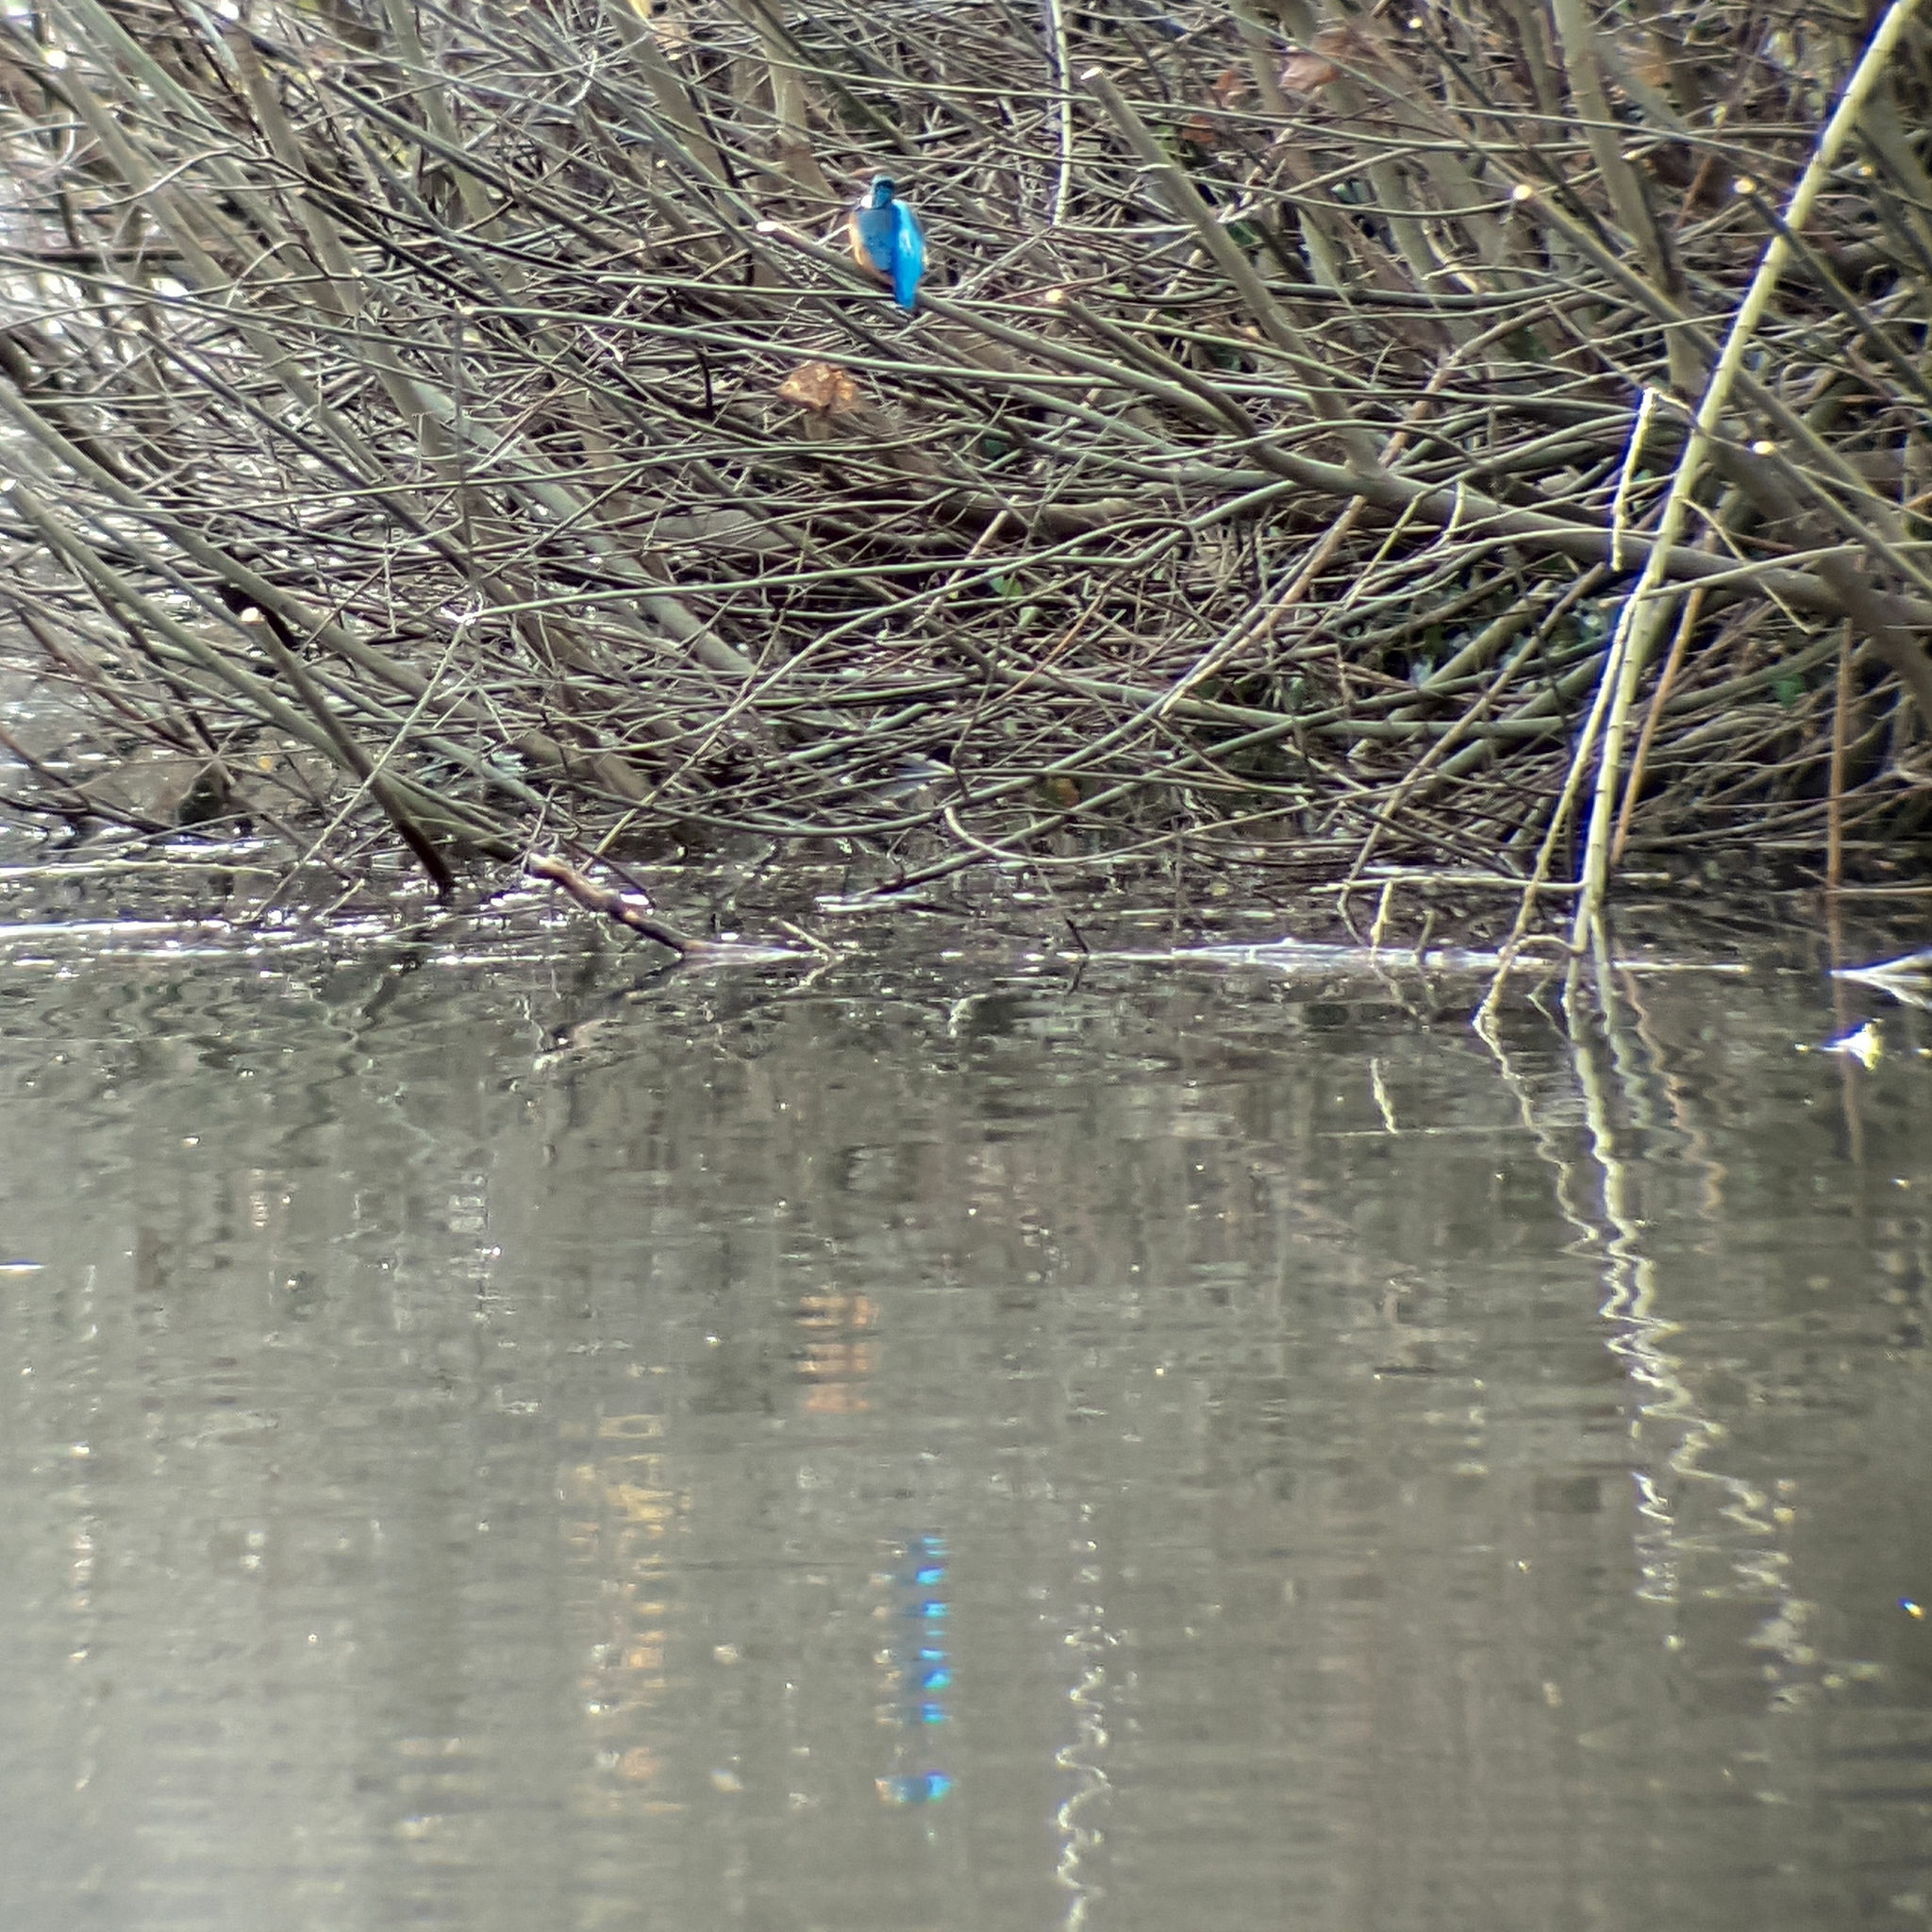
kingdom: Animalia
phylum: Chordata
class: Aves
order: Coraciiformes
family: Alcedinidae
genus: Alcedo
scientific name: Alcedo atthis
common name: Common kingfisher
